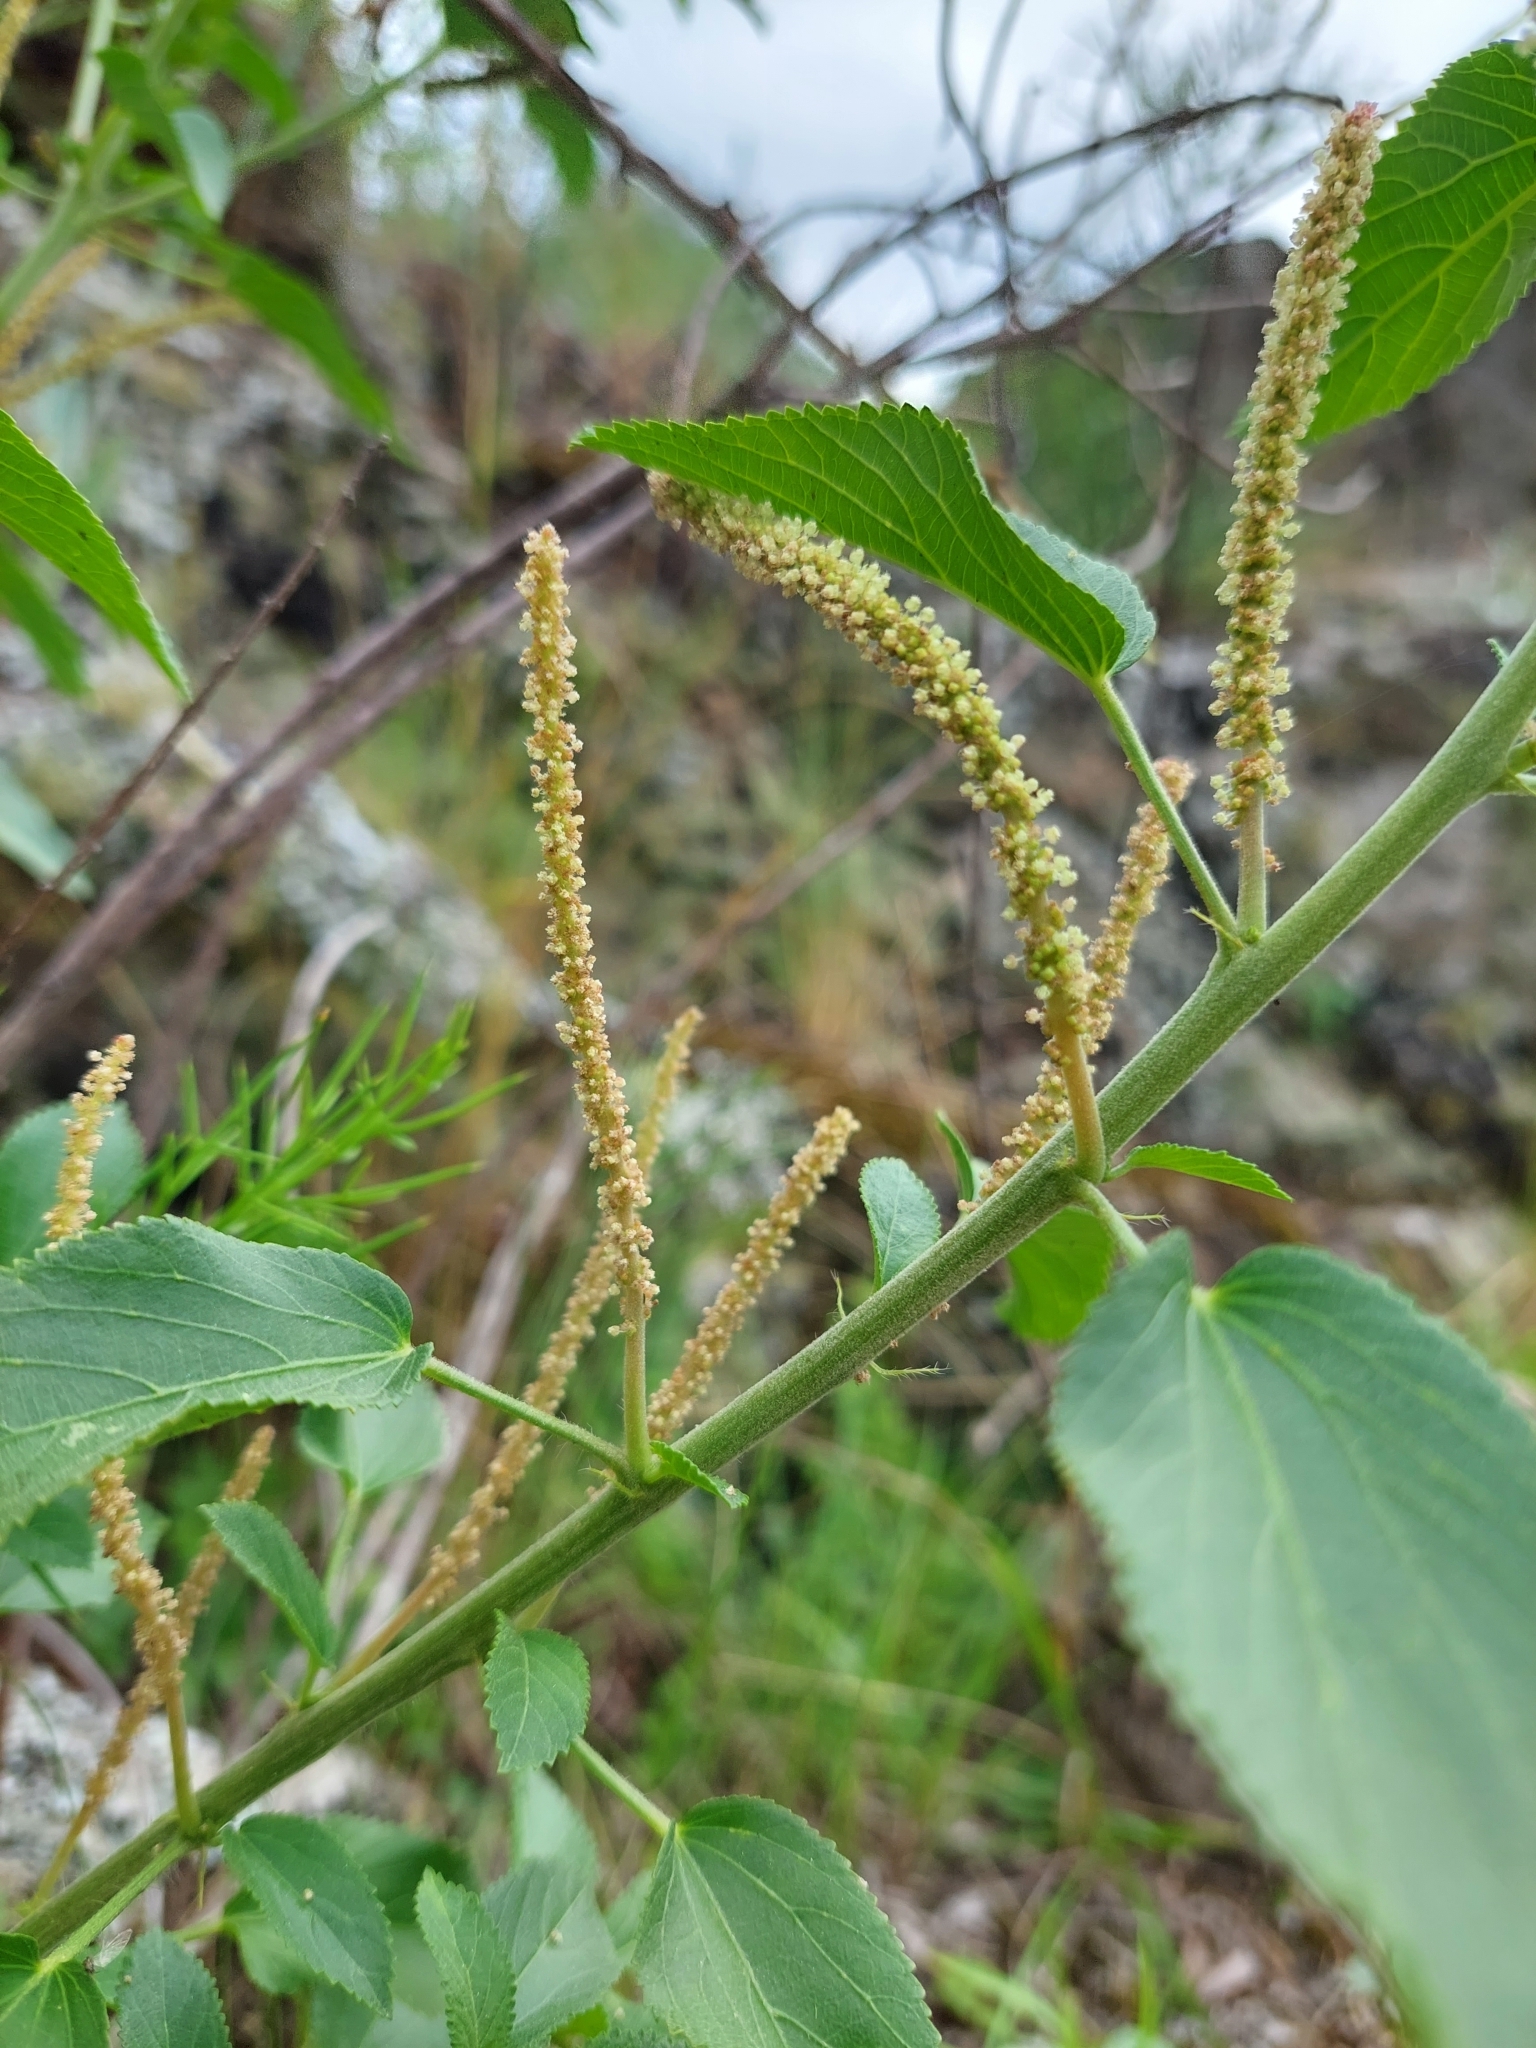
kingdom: Plantae
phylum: Tracheophyta
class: Magnoliopsida
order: Malpighiales
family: Euphorbiaceae
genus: Acalypha
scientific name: Acalypha communis
